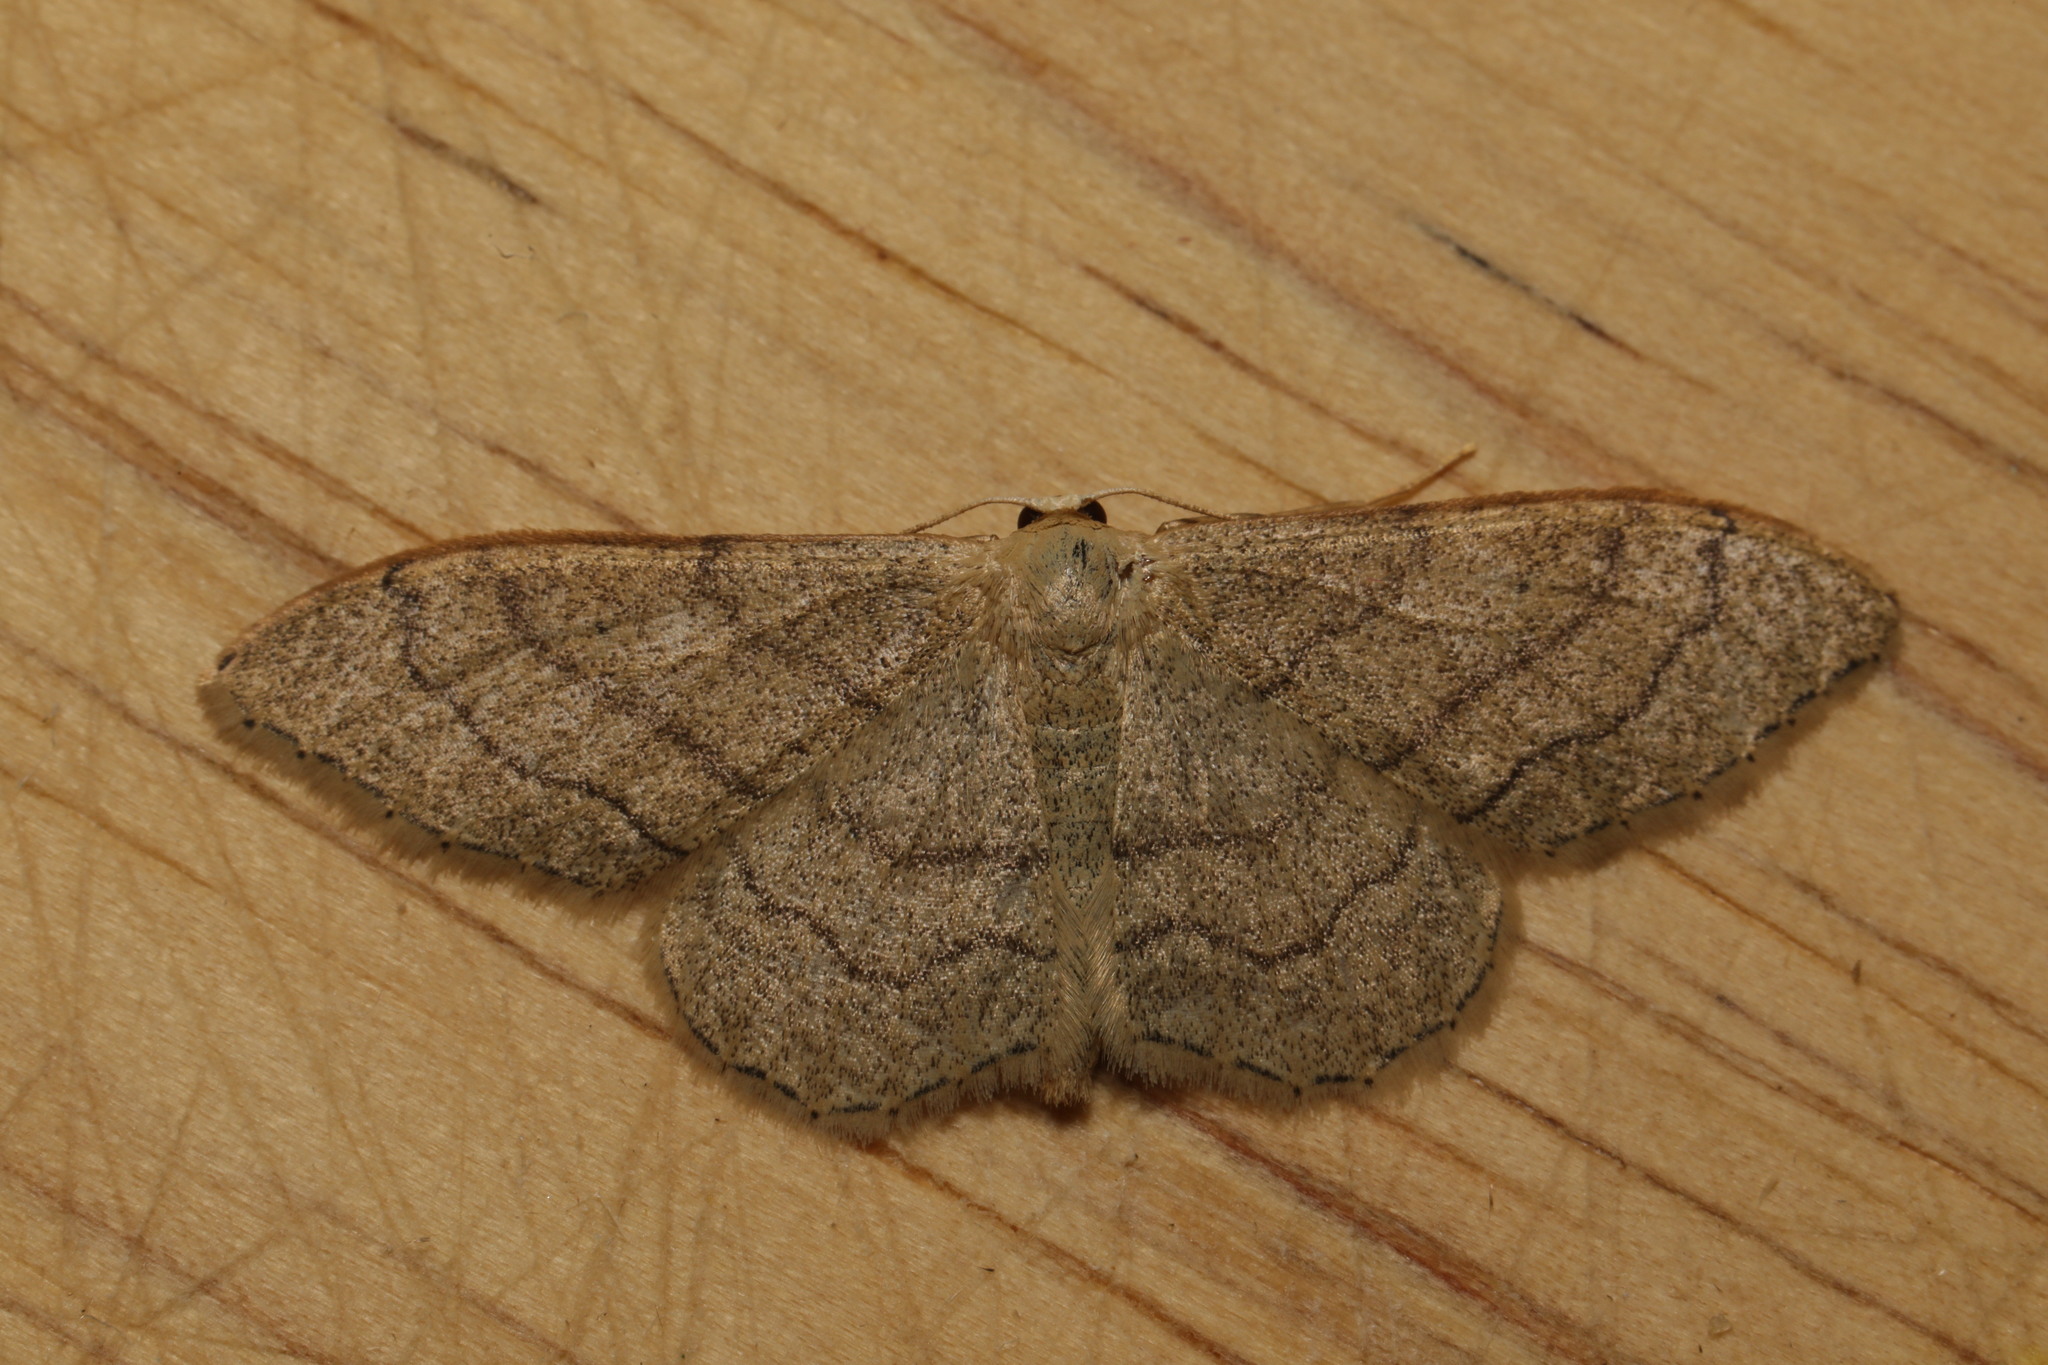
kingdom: Animalia
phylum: Arthropoda
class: Insecta
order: Lepidoptera
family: Geometridae
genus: Idaea
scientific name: Idaea aversata
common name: Riband wave
